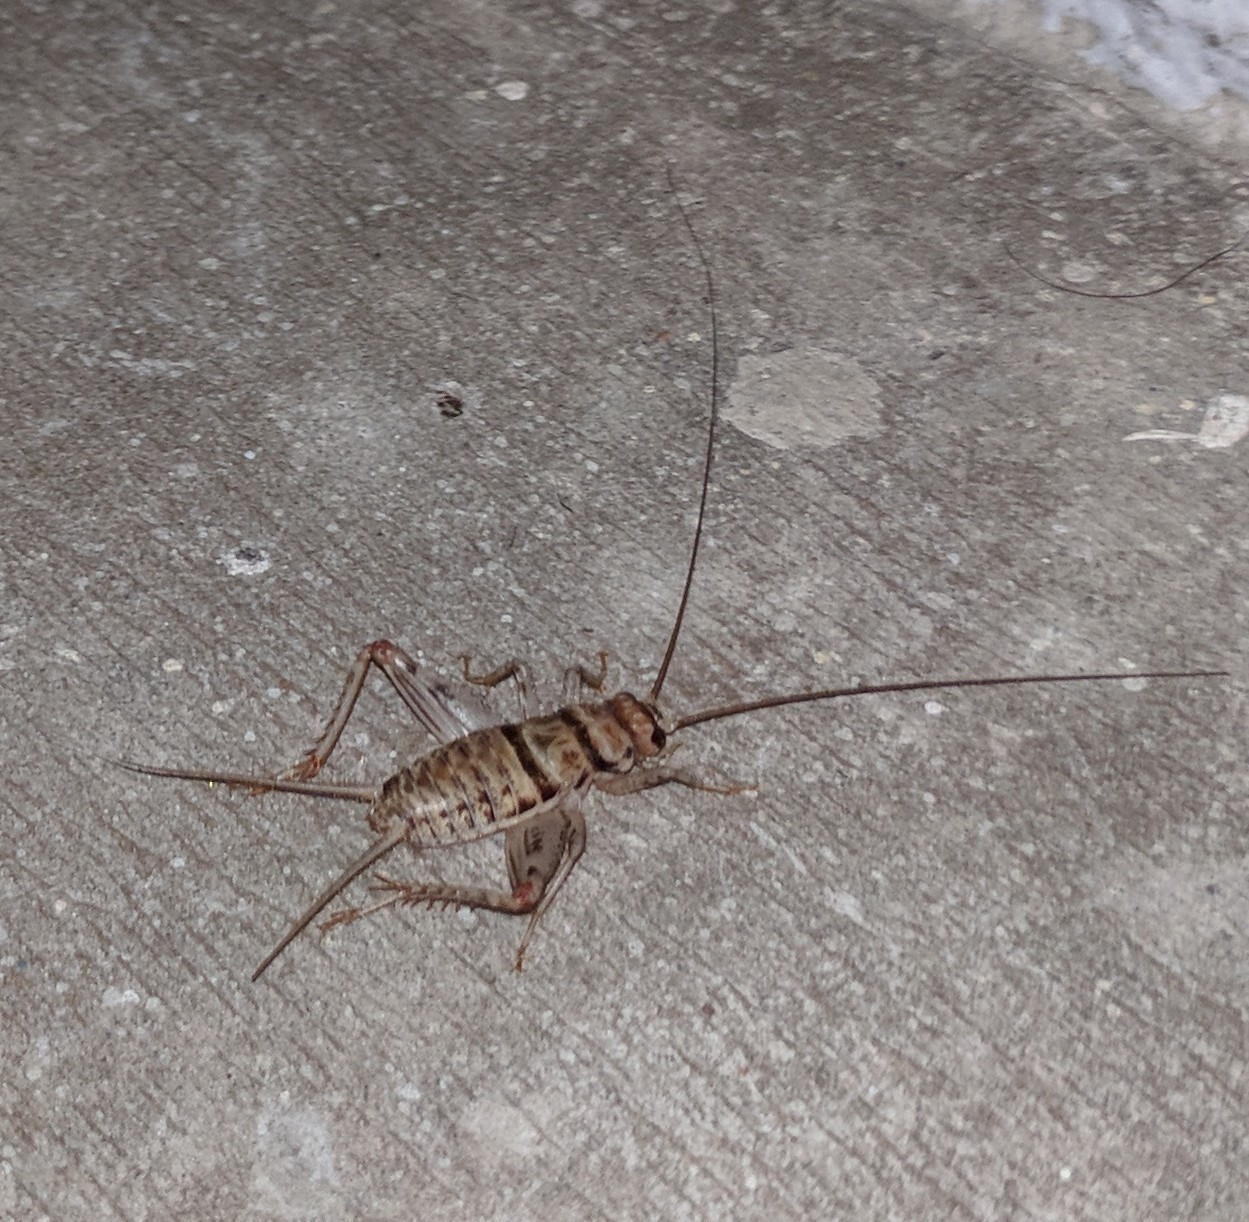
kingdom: Animalia
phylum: Arthropoda
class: Insecta
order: Orthoptera
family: Gryllidae
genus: Gryllodes
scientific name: Gryllodes sigillatus
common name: Tropical house cricket
